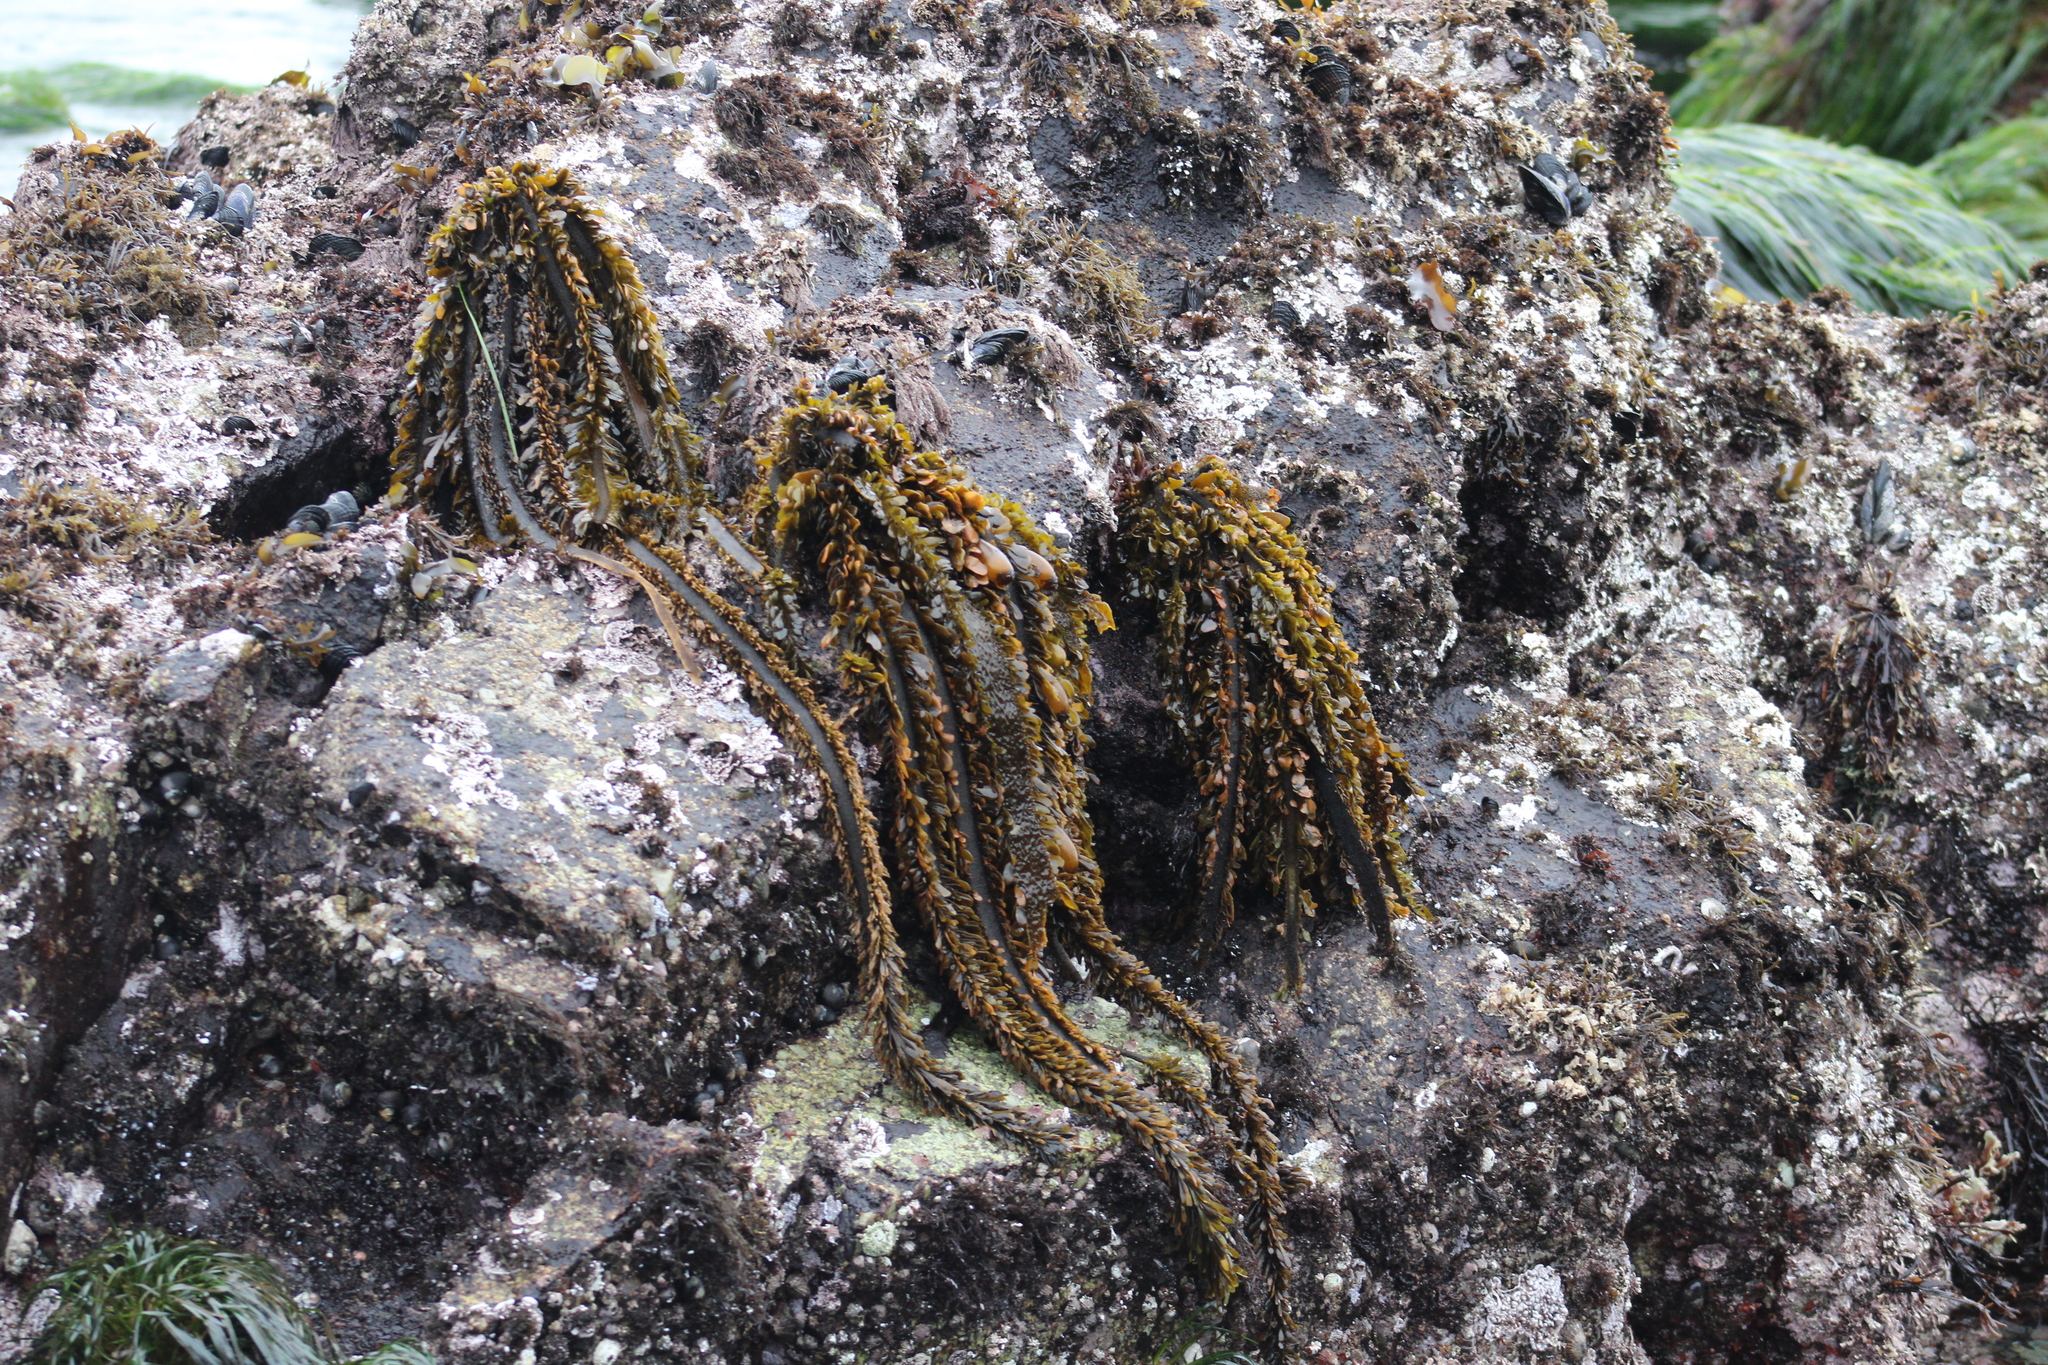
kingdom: Chromista
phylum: Ochrophyta
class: Phaeophyceae
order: Laminariales
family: Lessoniaceae
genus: Egregia
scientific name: Egregia menziesii
